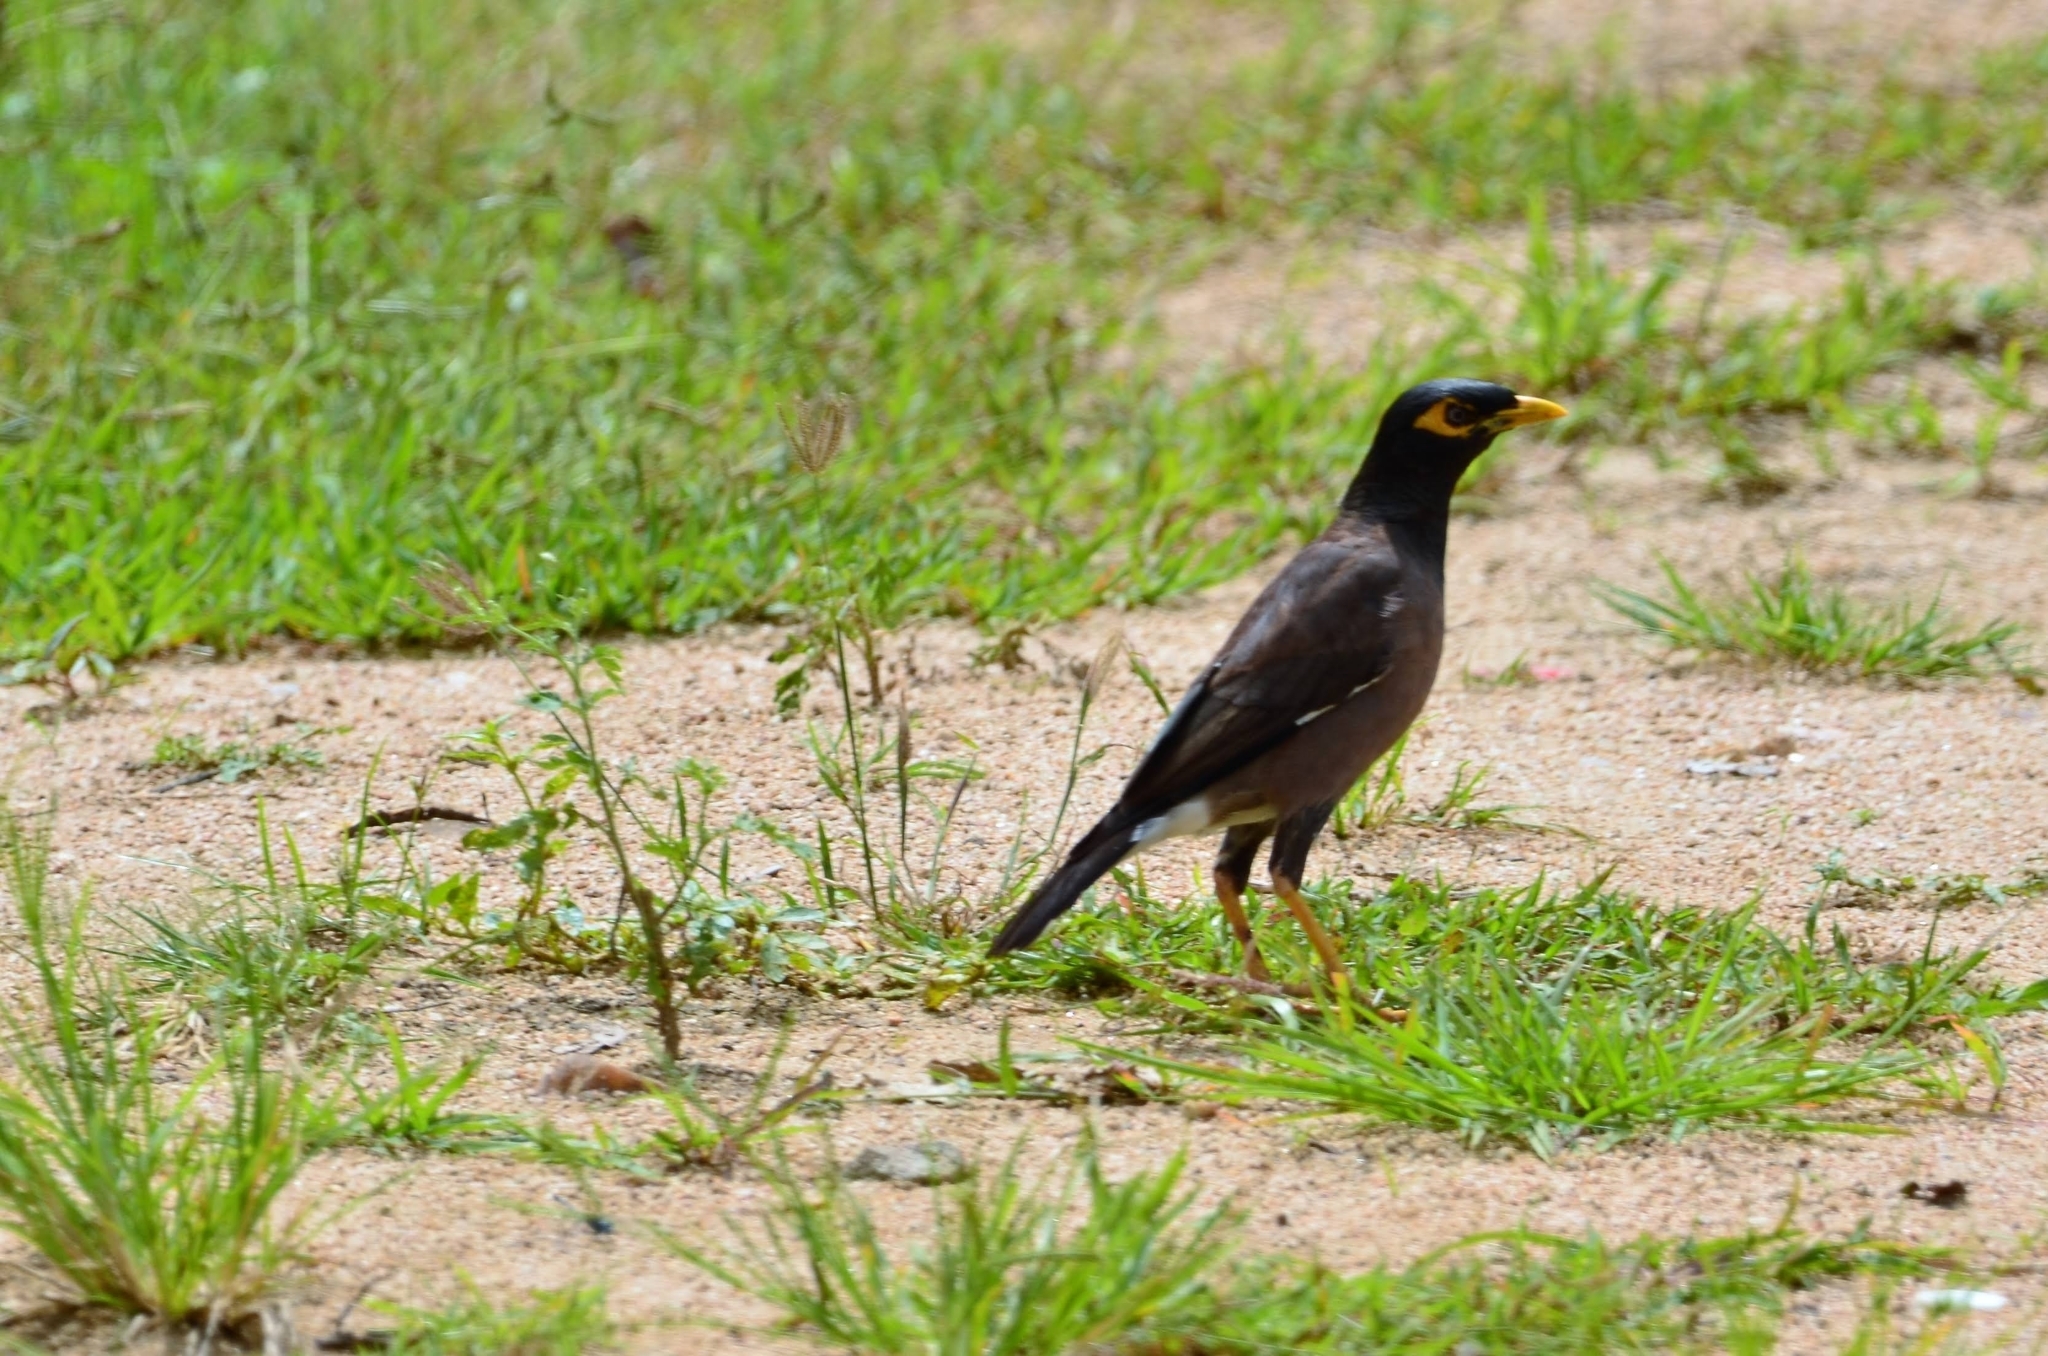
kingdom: Animalia
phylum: Chordata
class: Aves
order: Passeriformes
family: Sturnidae
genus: Acridotheres
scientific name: Acridotheres tristis
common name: Common myna
